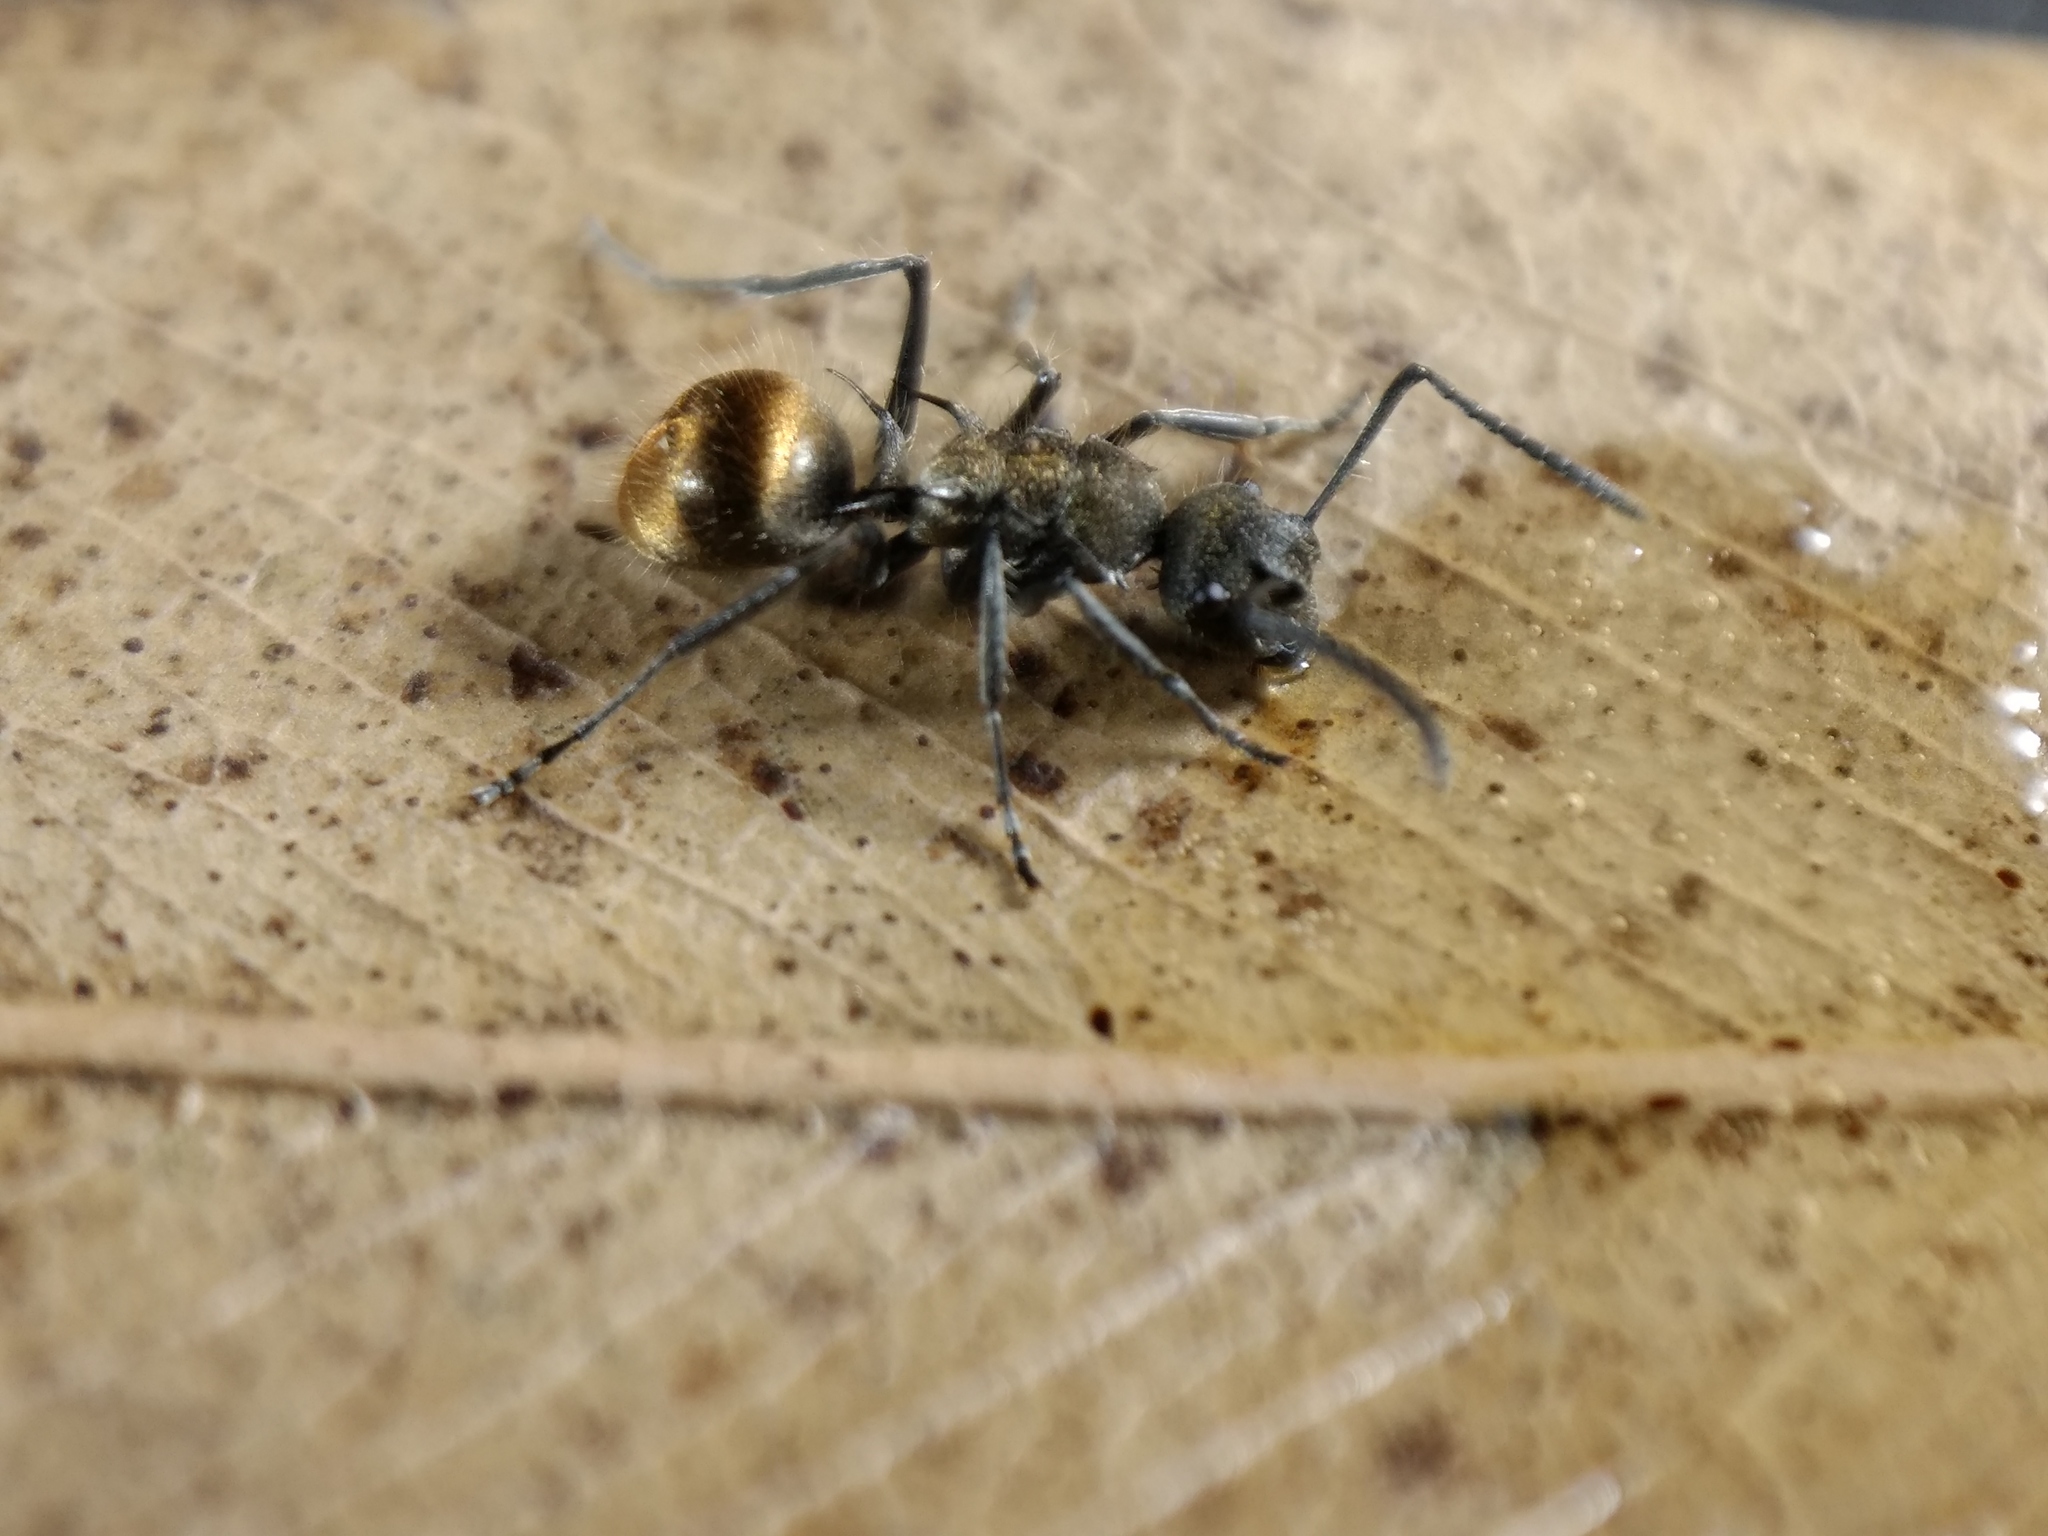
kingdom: Animalia
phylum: Arthropoda
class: Insecta
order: Hymenoptera
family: Formicidae
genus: Polyrhachis
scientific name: Polyrhachis aurea
